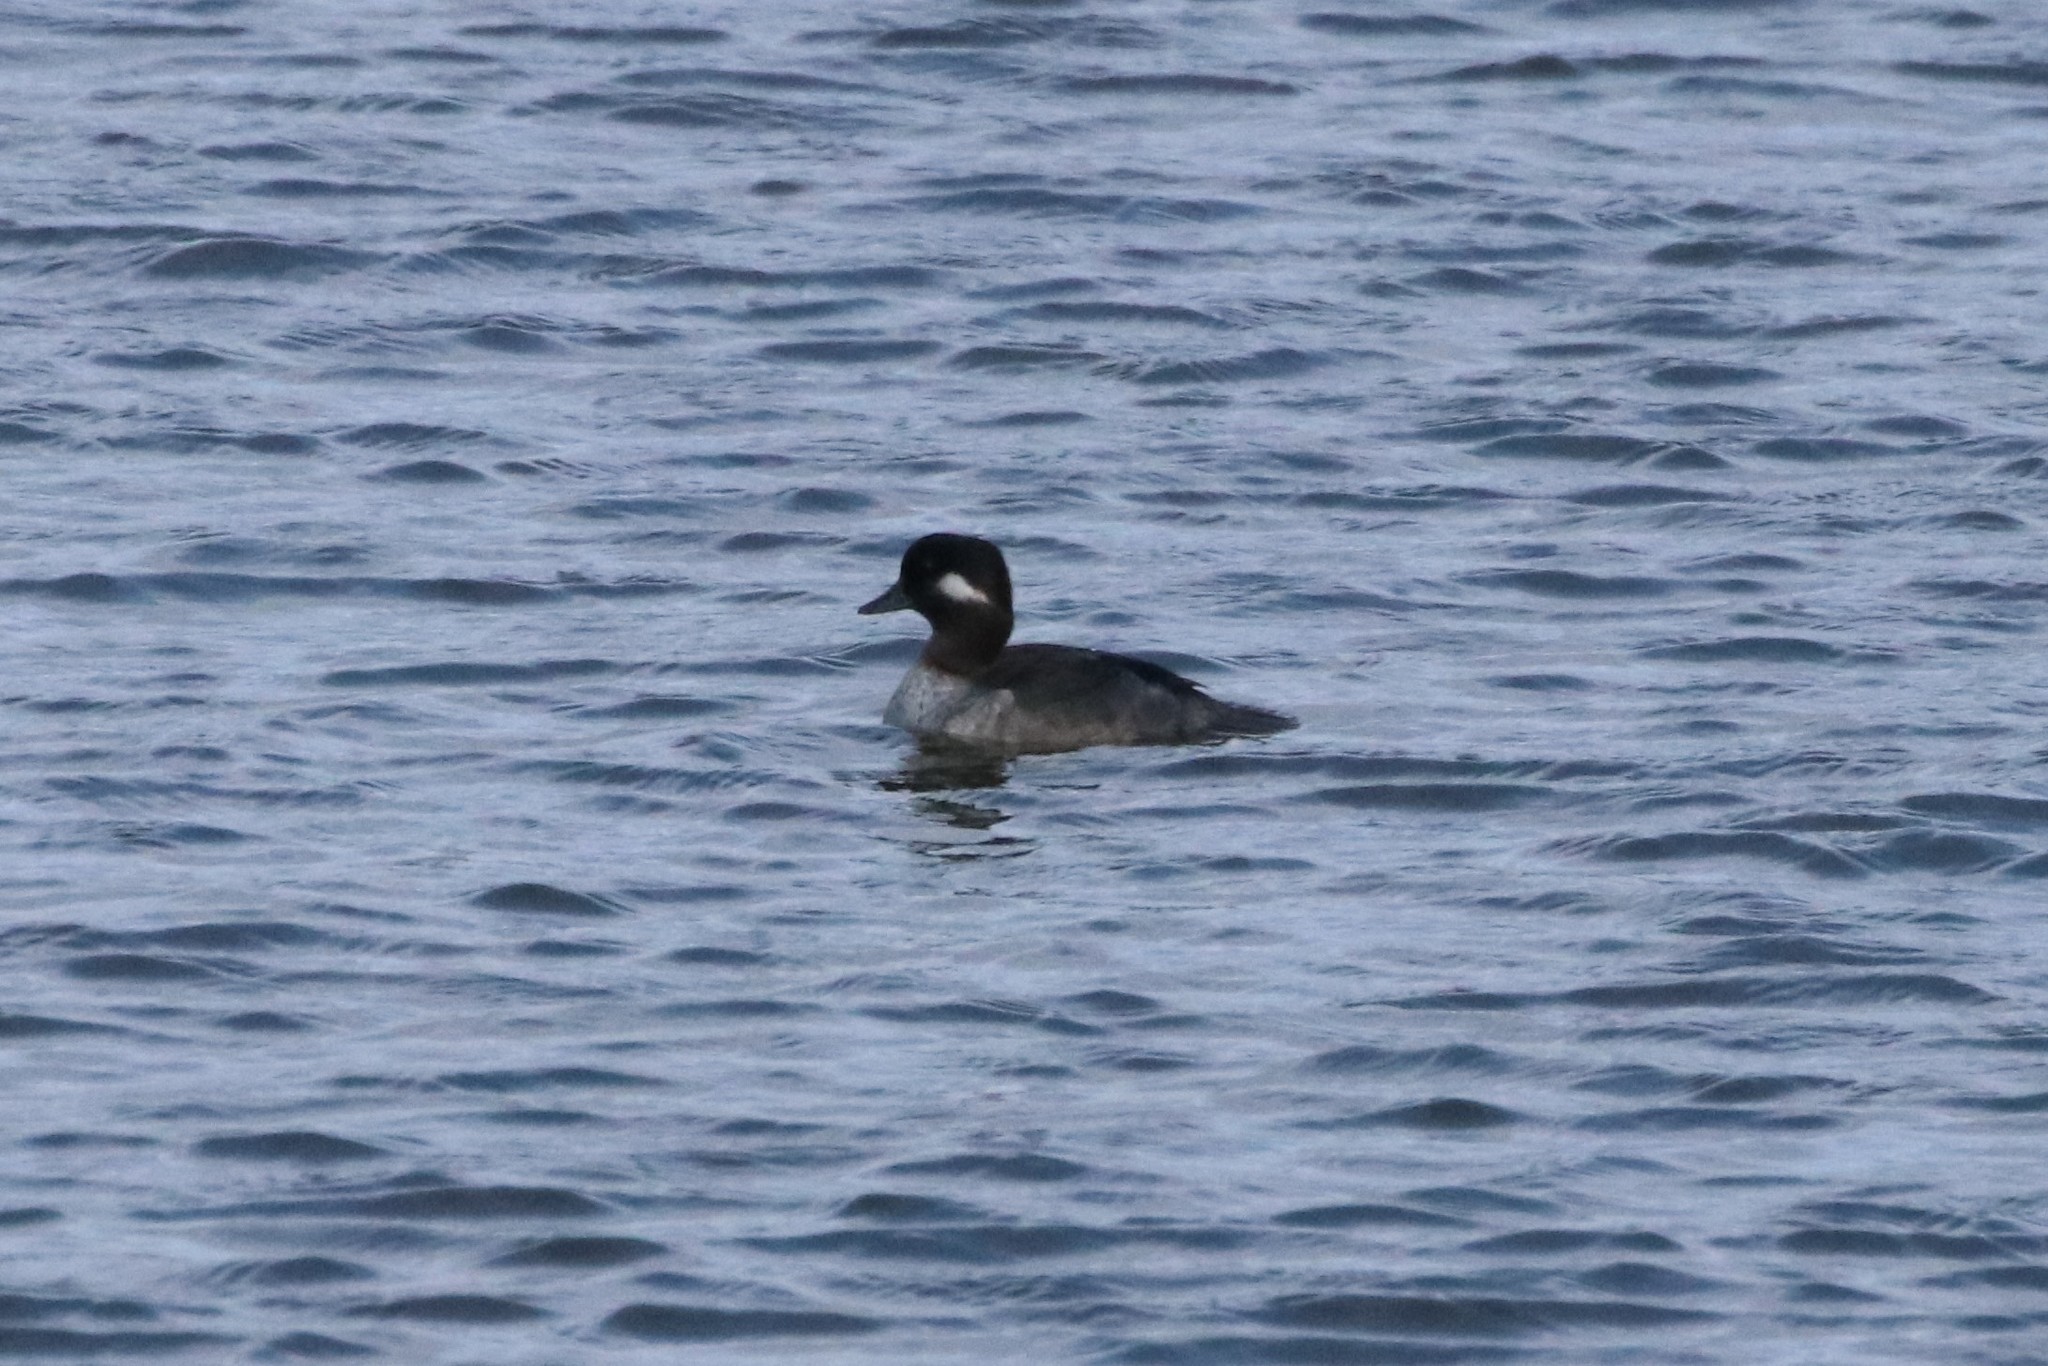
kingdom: Animalia
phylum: Chordata
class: Aves
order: Anseriformes
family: Anatidae
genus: Bucephala
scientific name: Bucephala albeola
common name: Bufflehead
